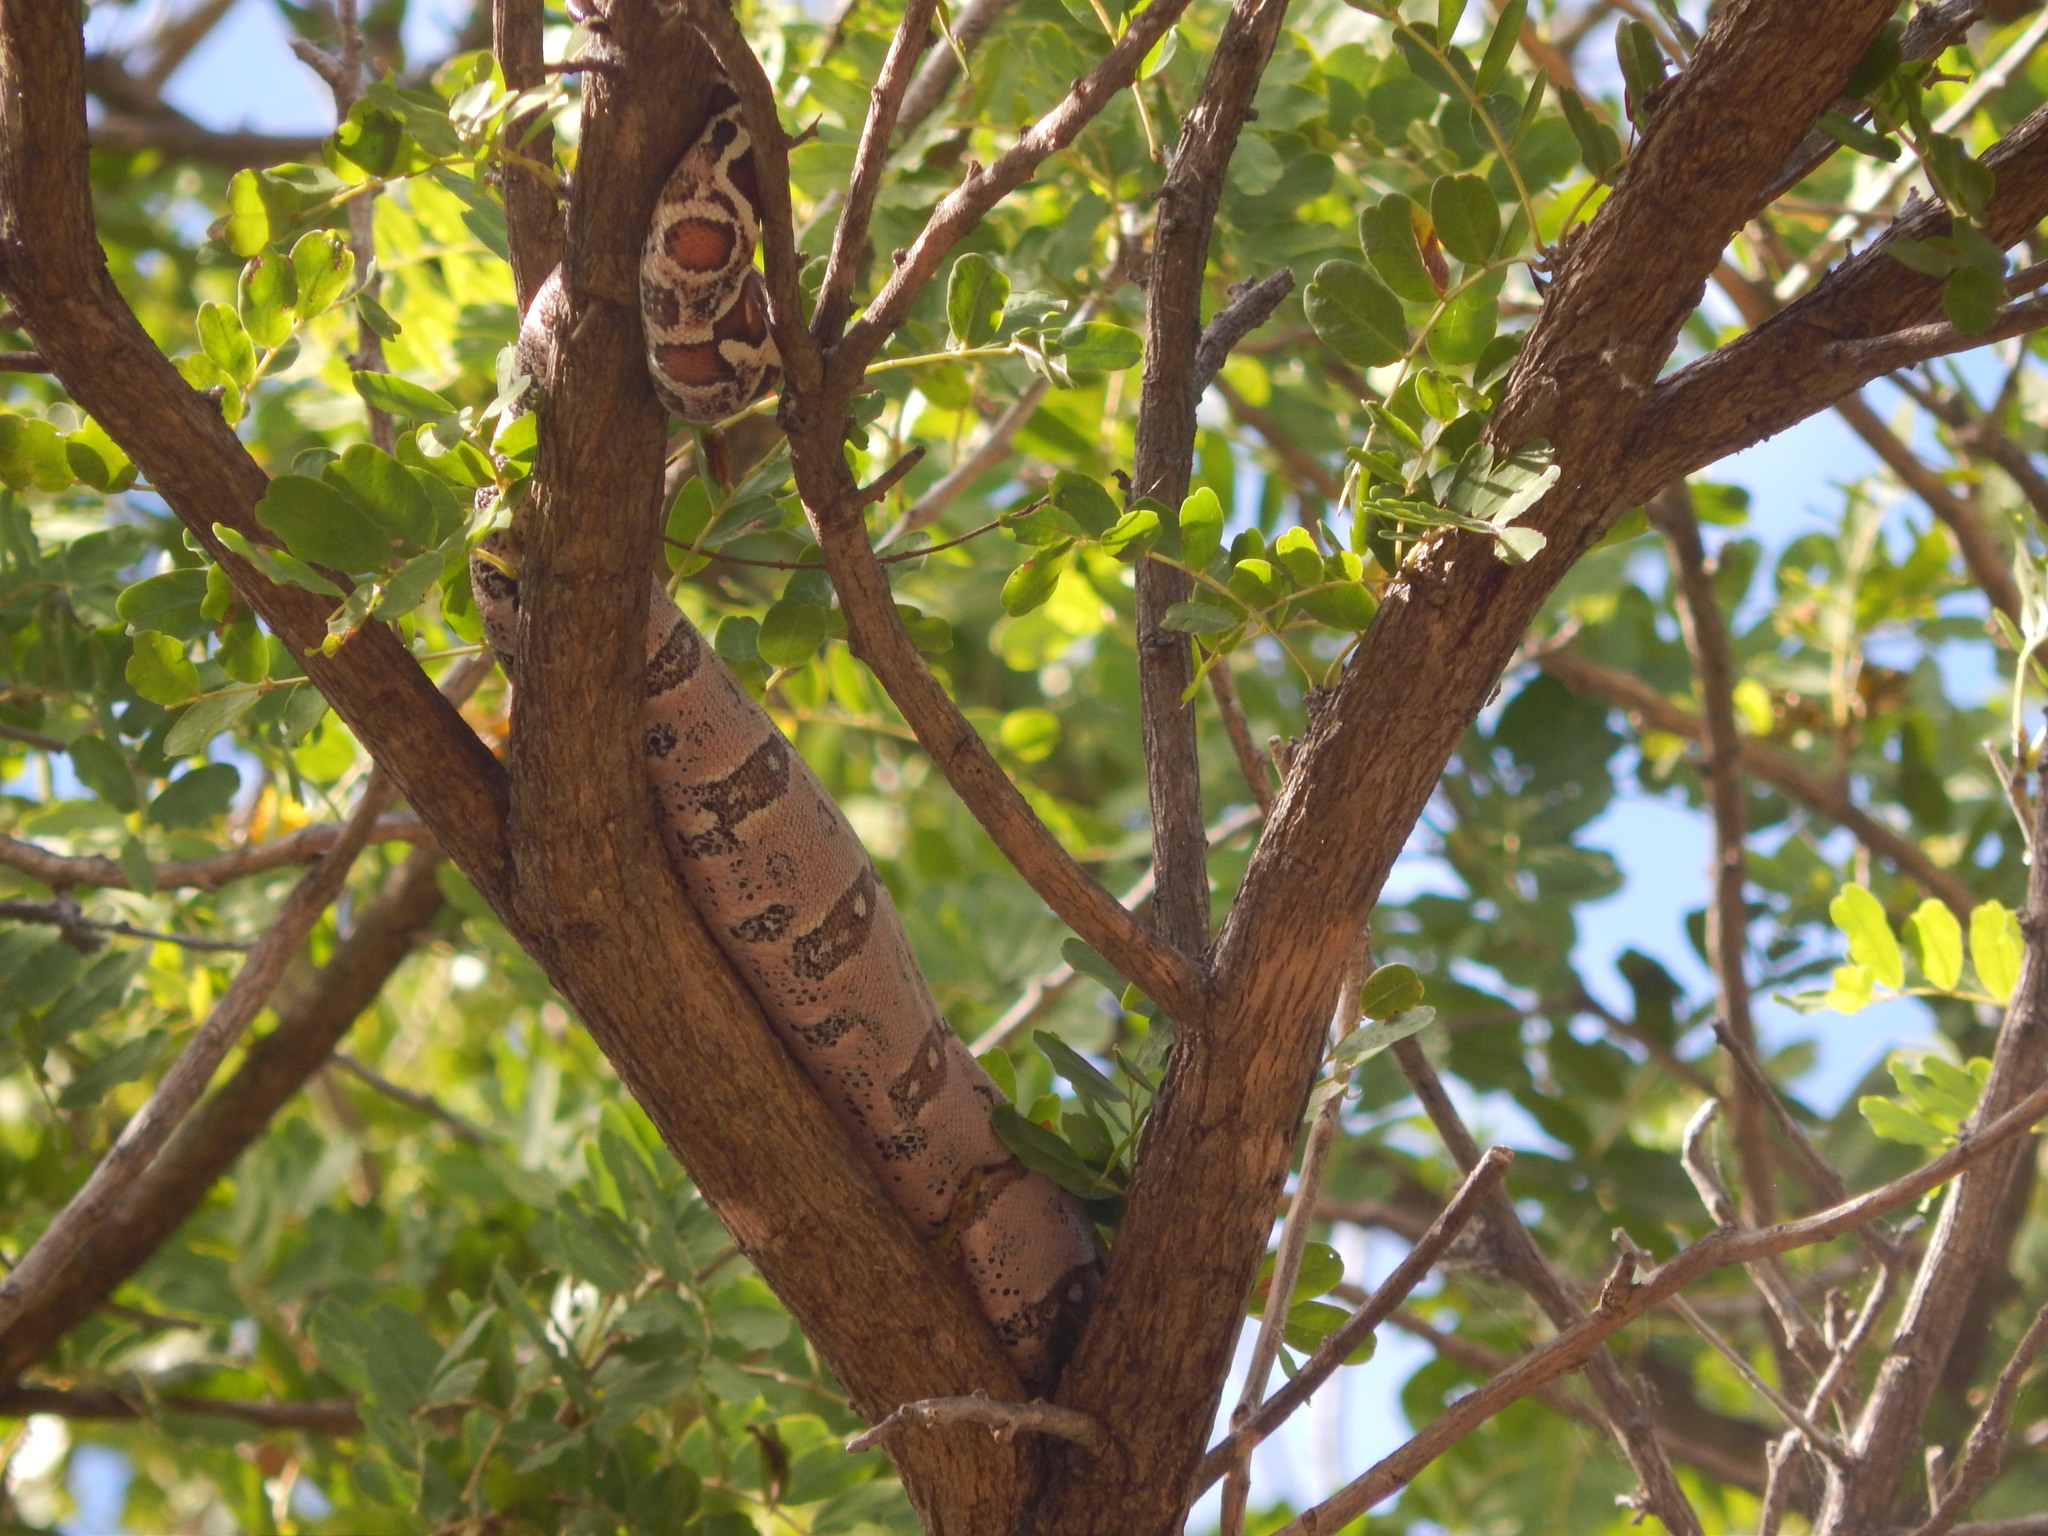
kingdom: Animalia
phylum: Chordata
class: Squamata
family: Boidae
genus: Boa
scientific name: Boa constrictor
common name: Boa constrictor
